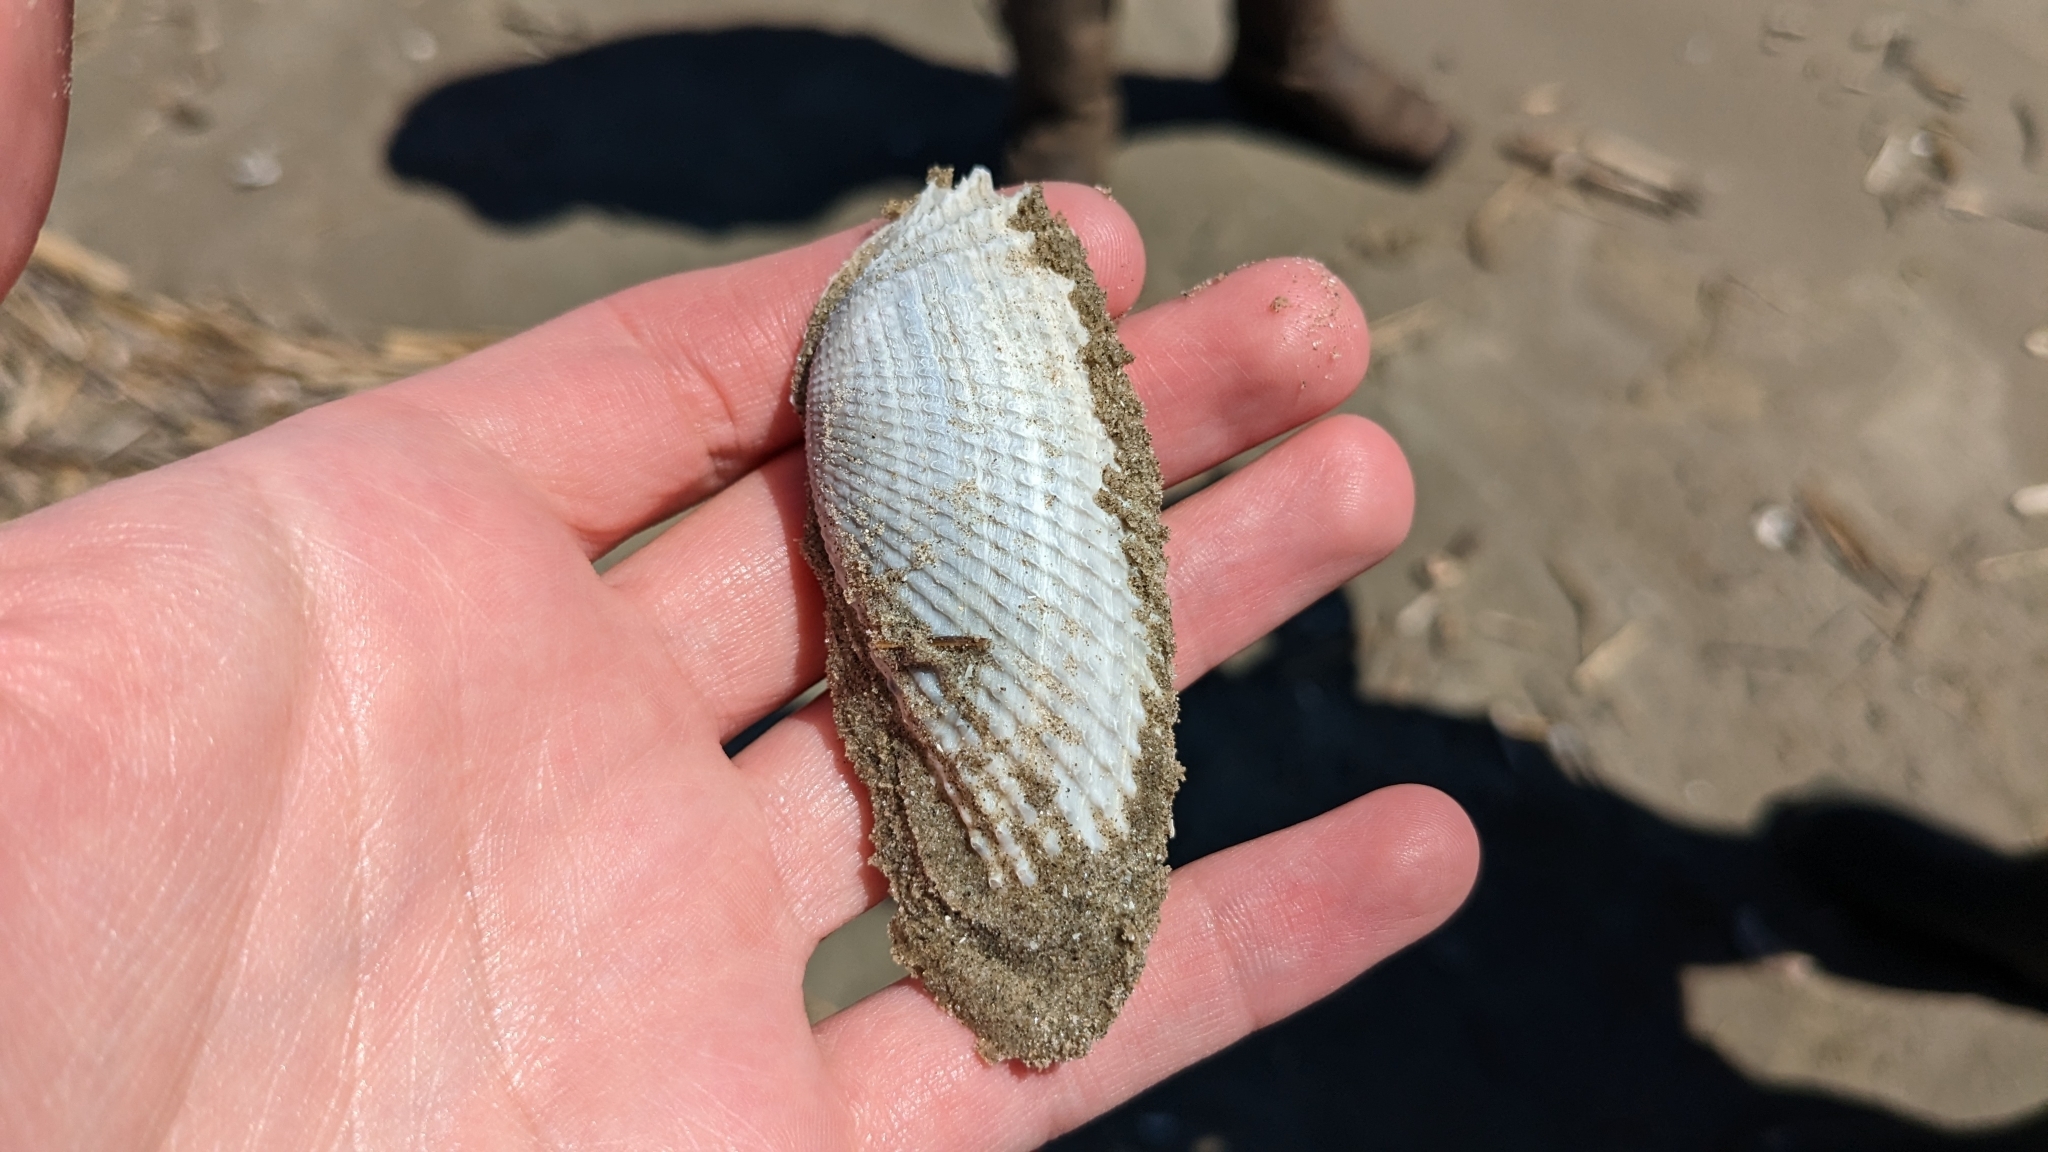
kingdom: Animalia
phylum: Mollusca
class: Bivalvia
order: Myida
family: Pholadidae
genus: Cyrtopleura
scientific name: Cyrtopleura costata
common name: Angel wing
